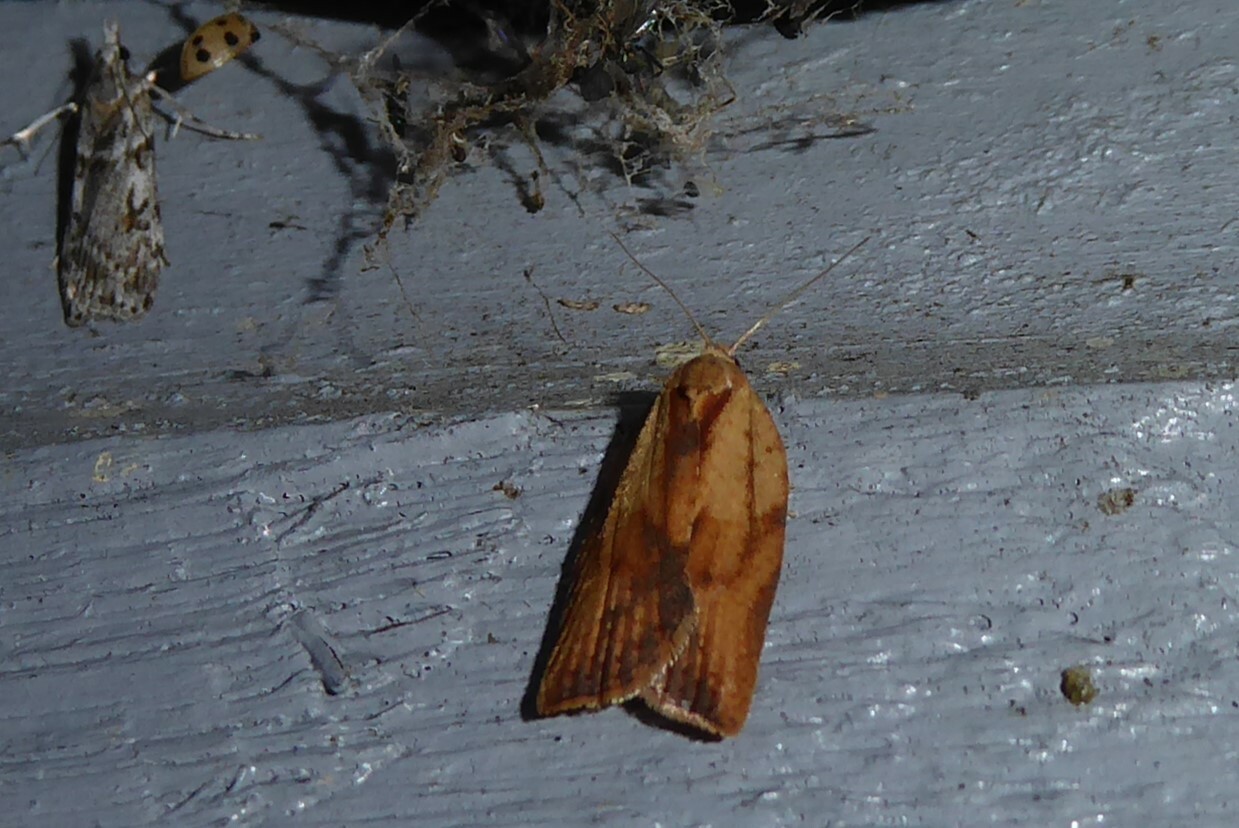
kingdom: Animalia
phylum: Arthropoda
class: Insecta
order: Lepidoptera
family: Tortricidae
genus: Epiphyas
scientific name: Epiphyas postvittana
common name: Light brown apple moth
